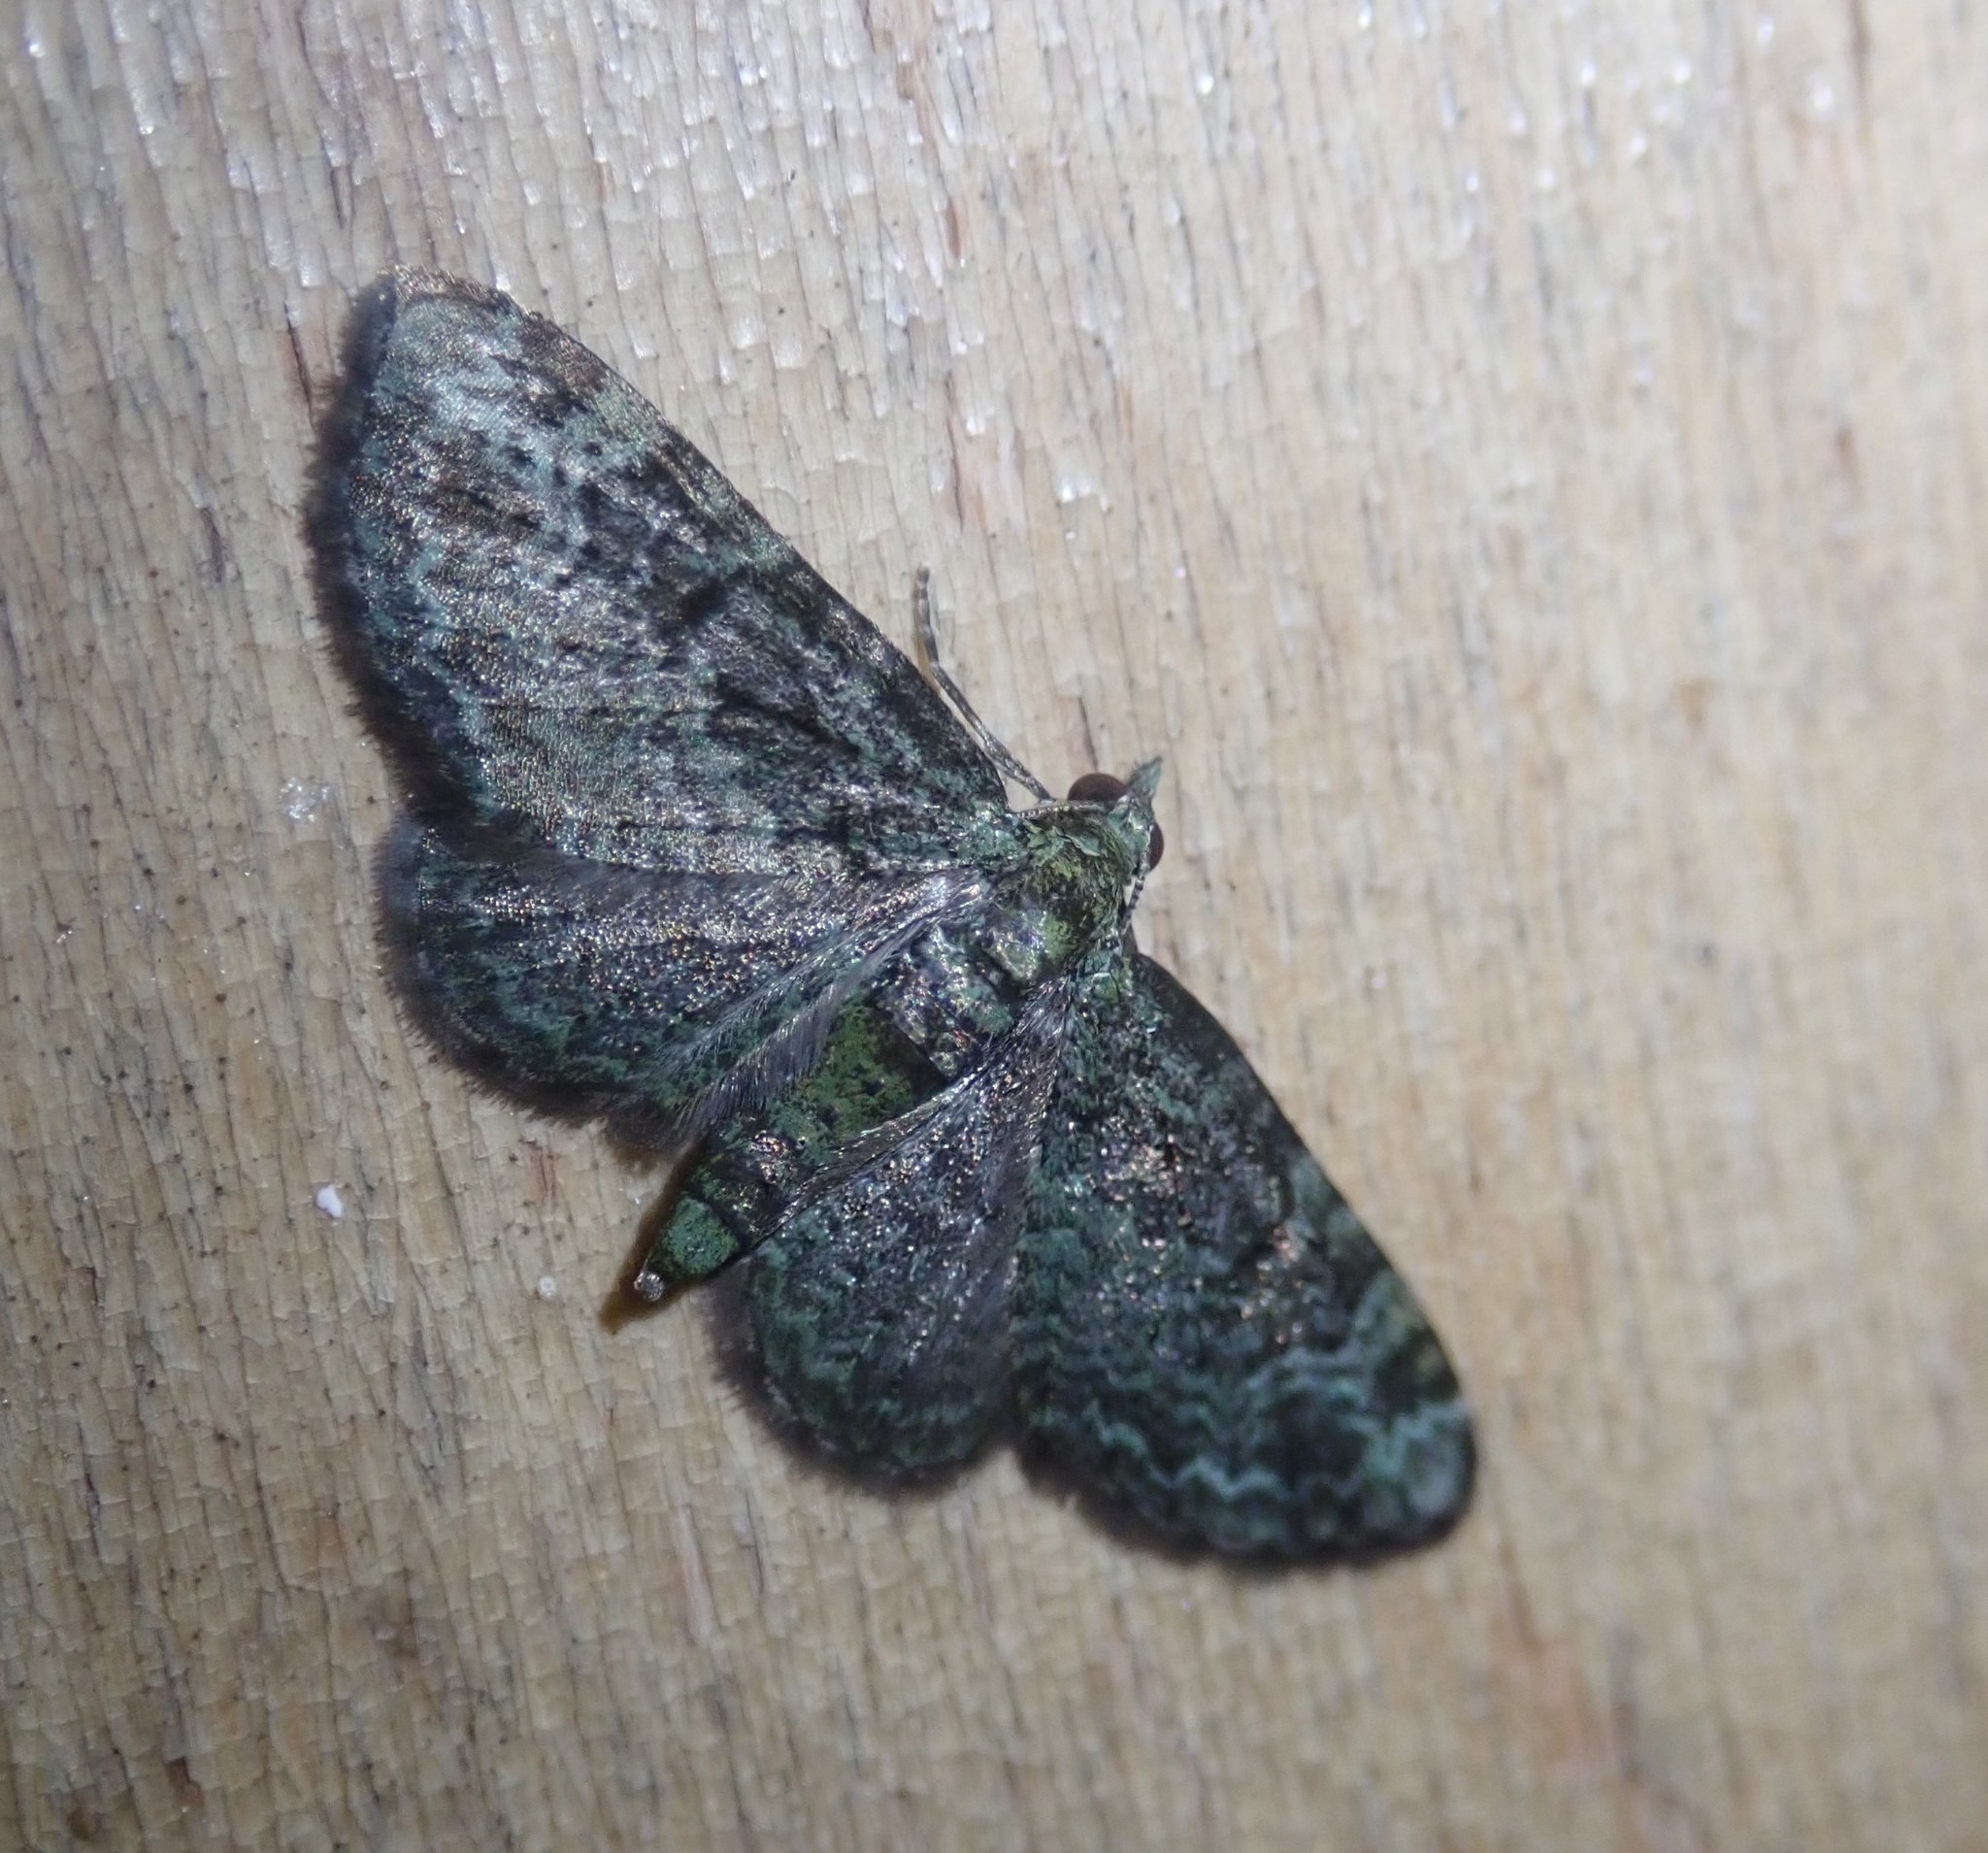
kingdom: Animalia
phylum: Arthropoda
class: Insecta
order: Lepidoptera
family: Geometridae
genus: Pasiphila
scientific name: Pasiphila rectangulata
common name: Green pug
